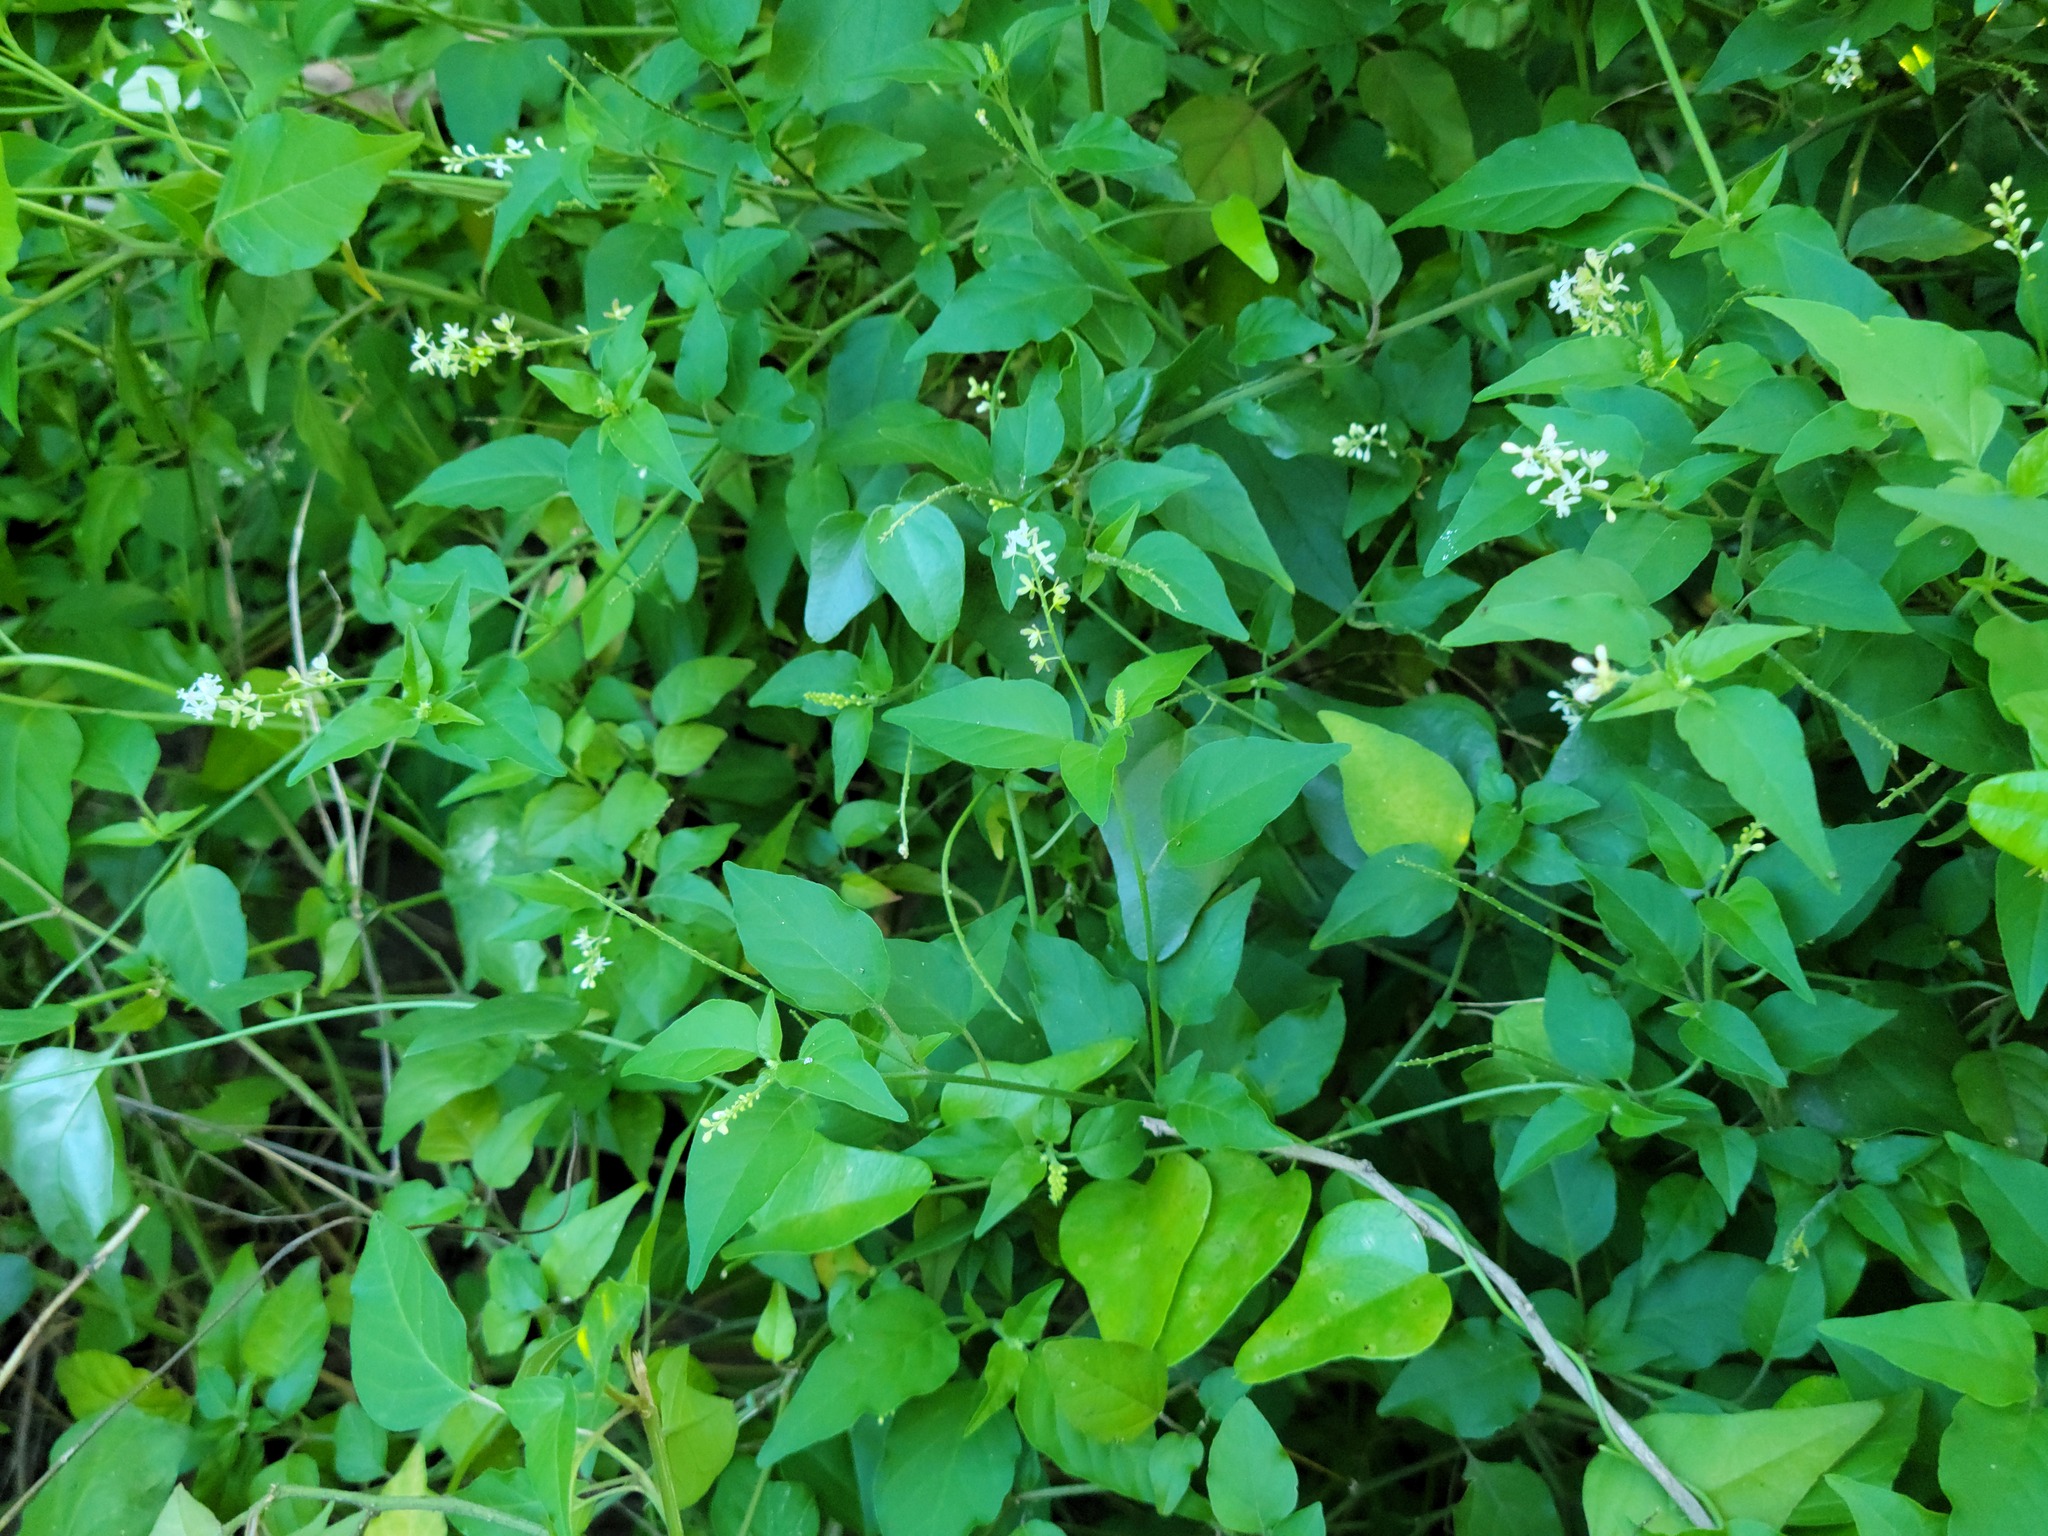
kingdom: Plantae
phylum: Tracheophyta
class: Magnoliopsida
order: Caryophyllales
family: Phytolaccaceae
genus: Rivina
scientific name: Rivina humilis
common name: Rougeplant
